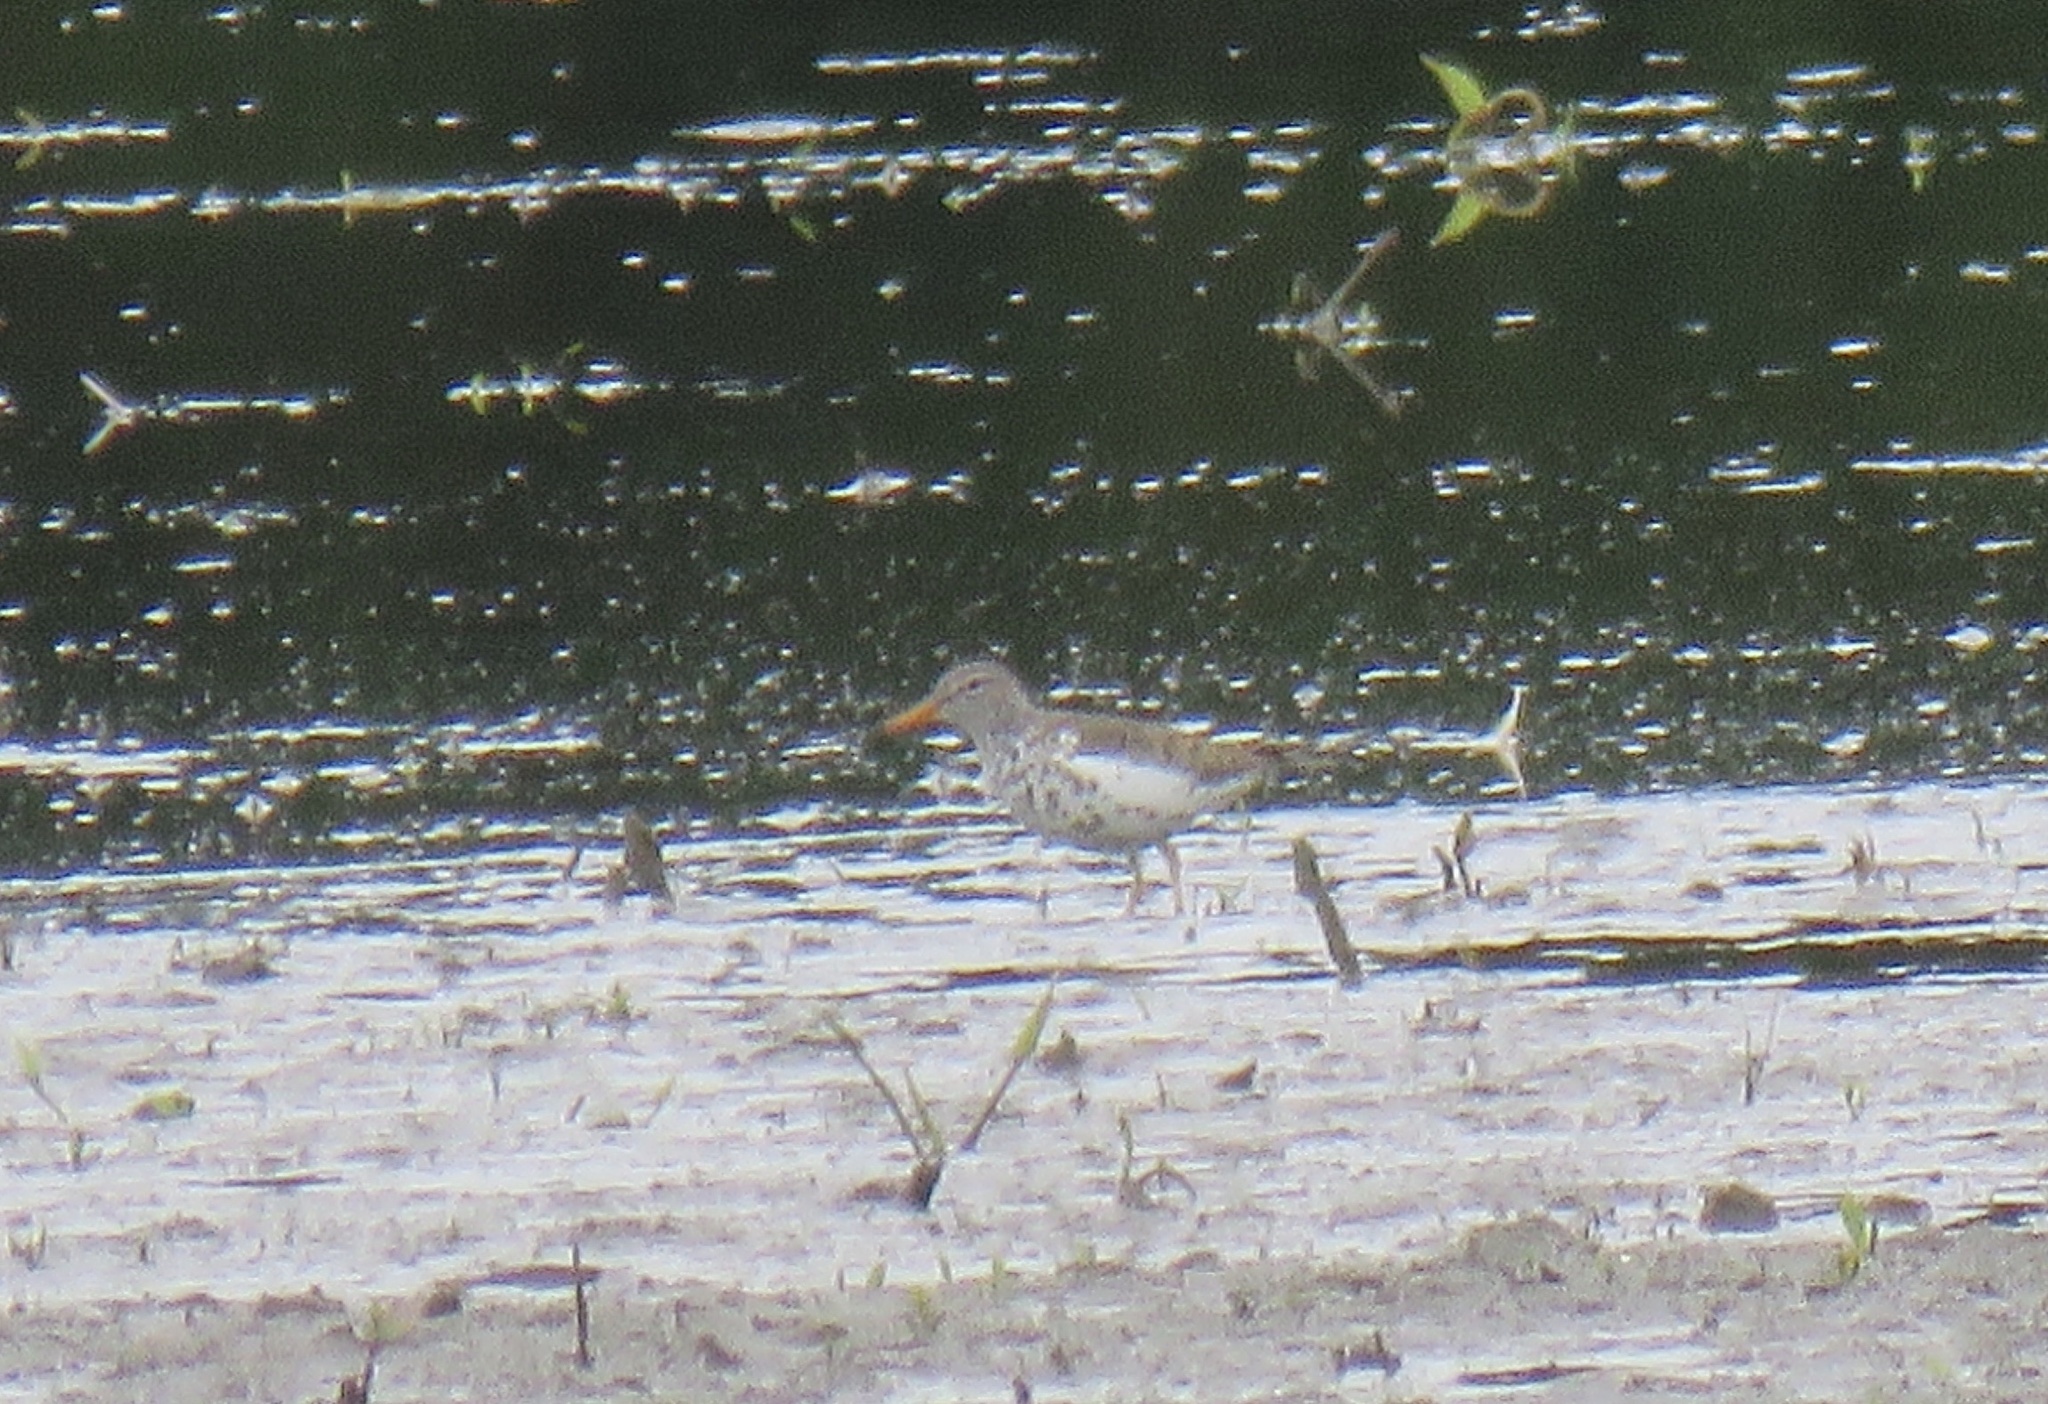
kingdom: Animalia
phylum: Chordata
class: Aves
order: Charadriiformes
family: Scolopacidae
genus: Actitis
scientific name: Actitis macularius
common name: Spotted sandpiper
